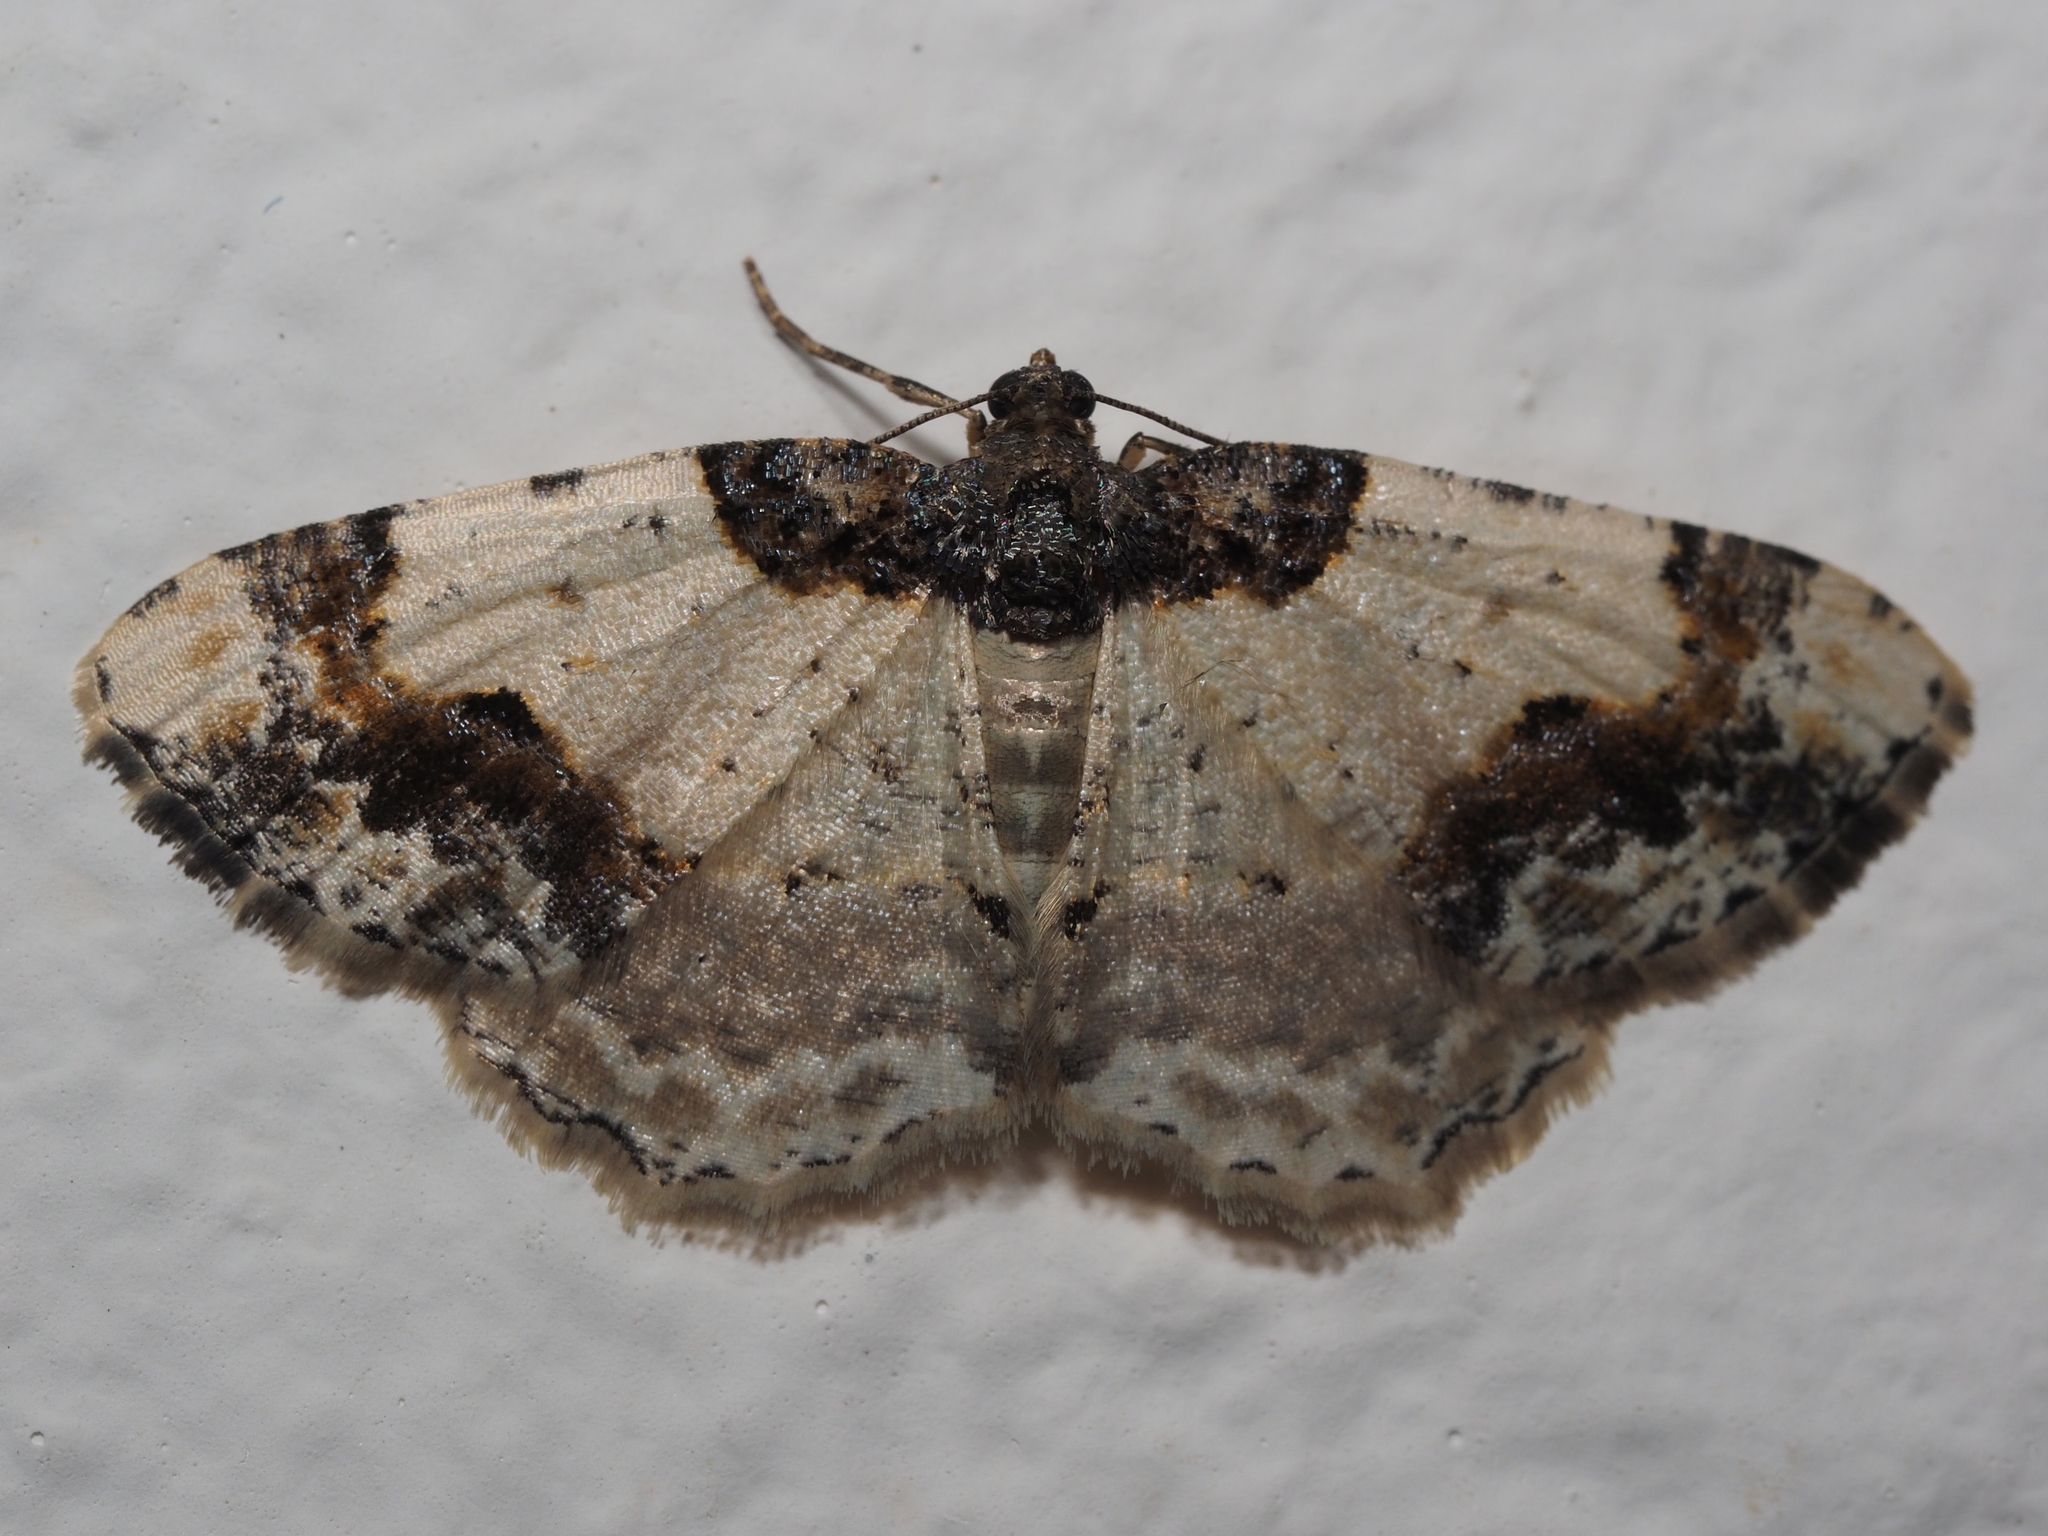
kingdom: Animalia
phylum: Arthropoda
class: Insecta
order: Lepidoptera
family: Geometridae
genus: Ligdia
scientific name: Ligdia adustata
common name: Scorched carpet
